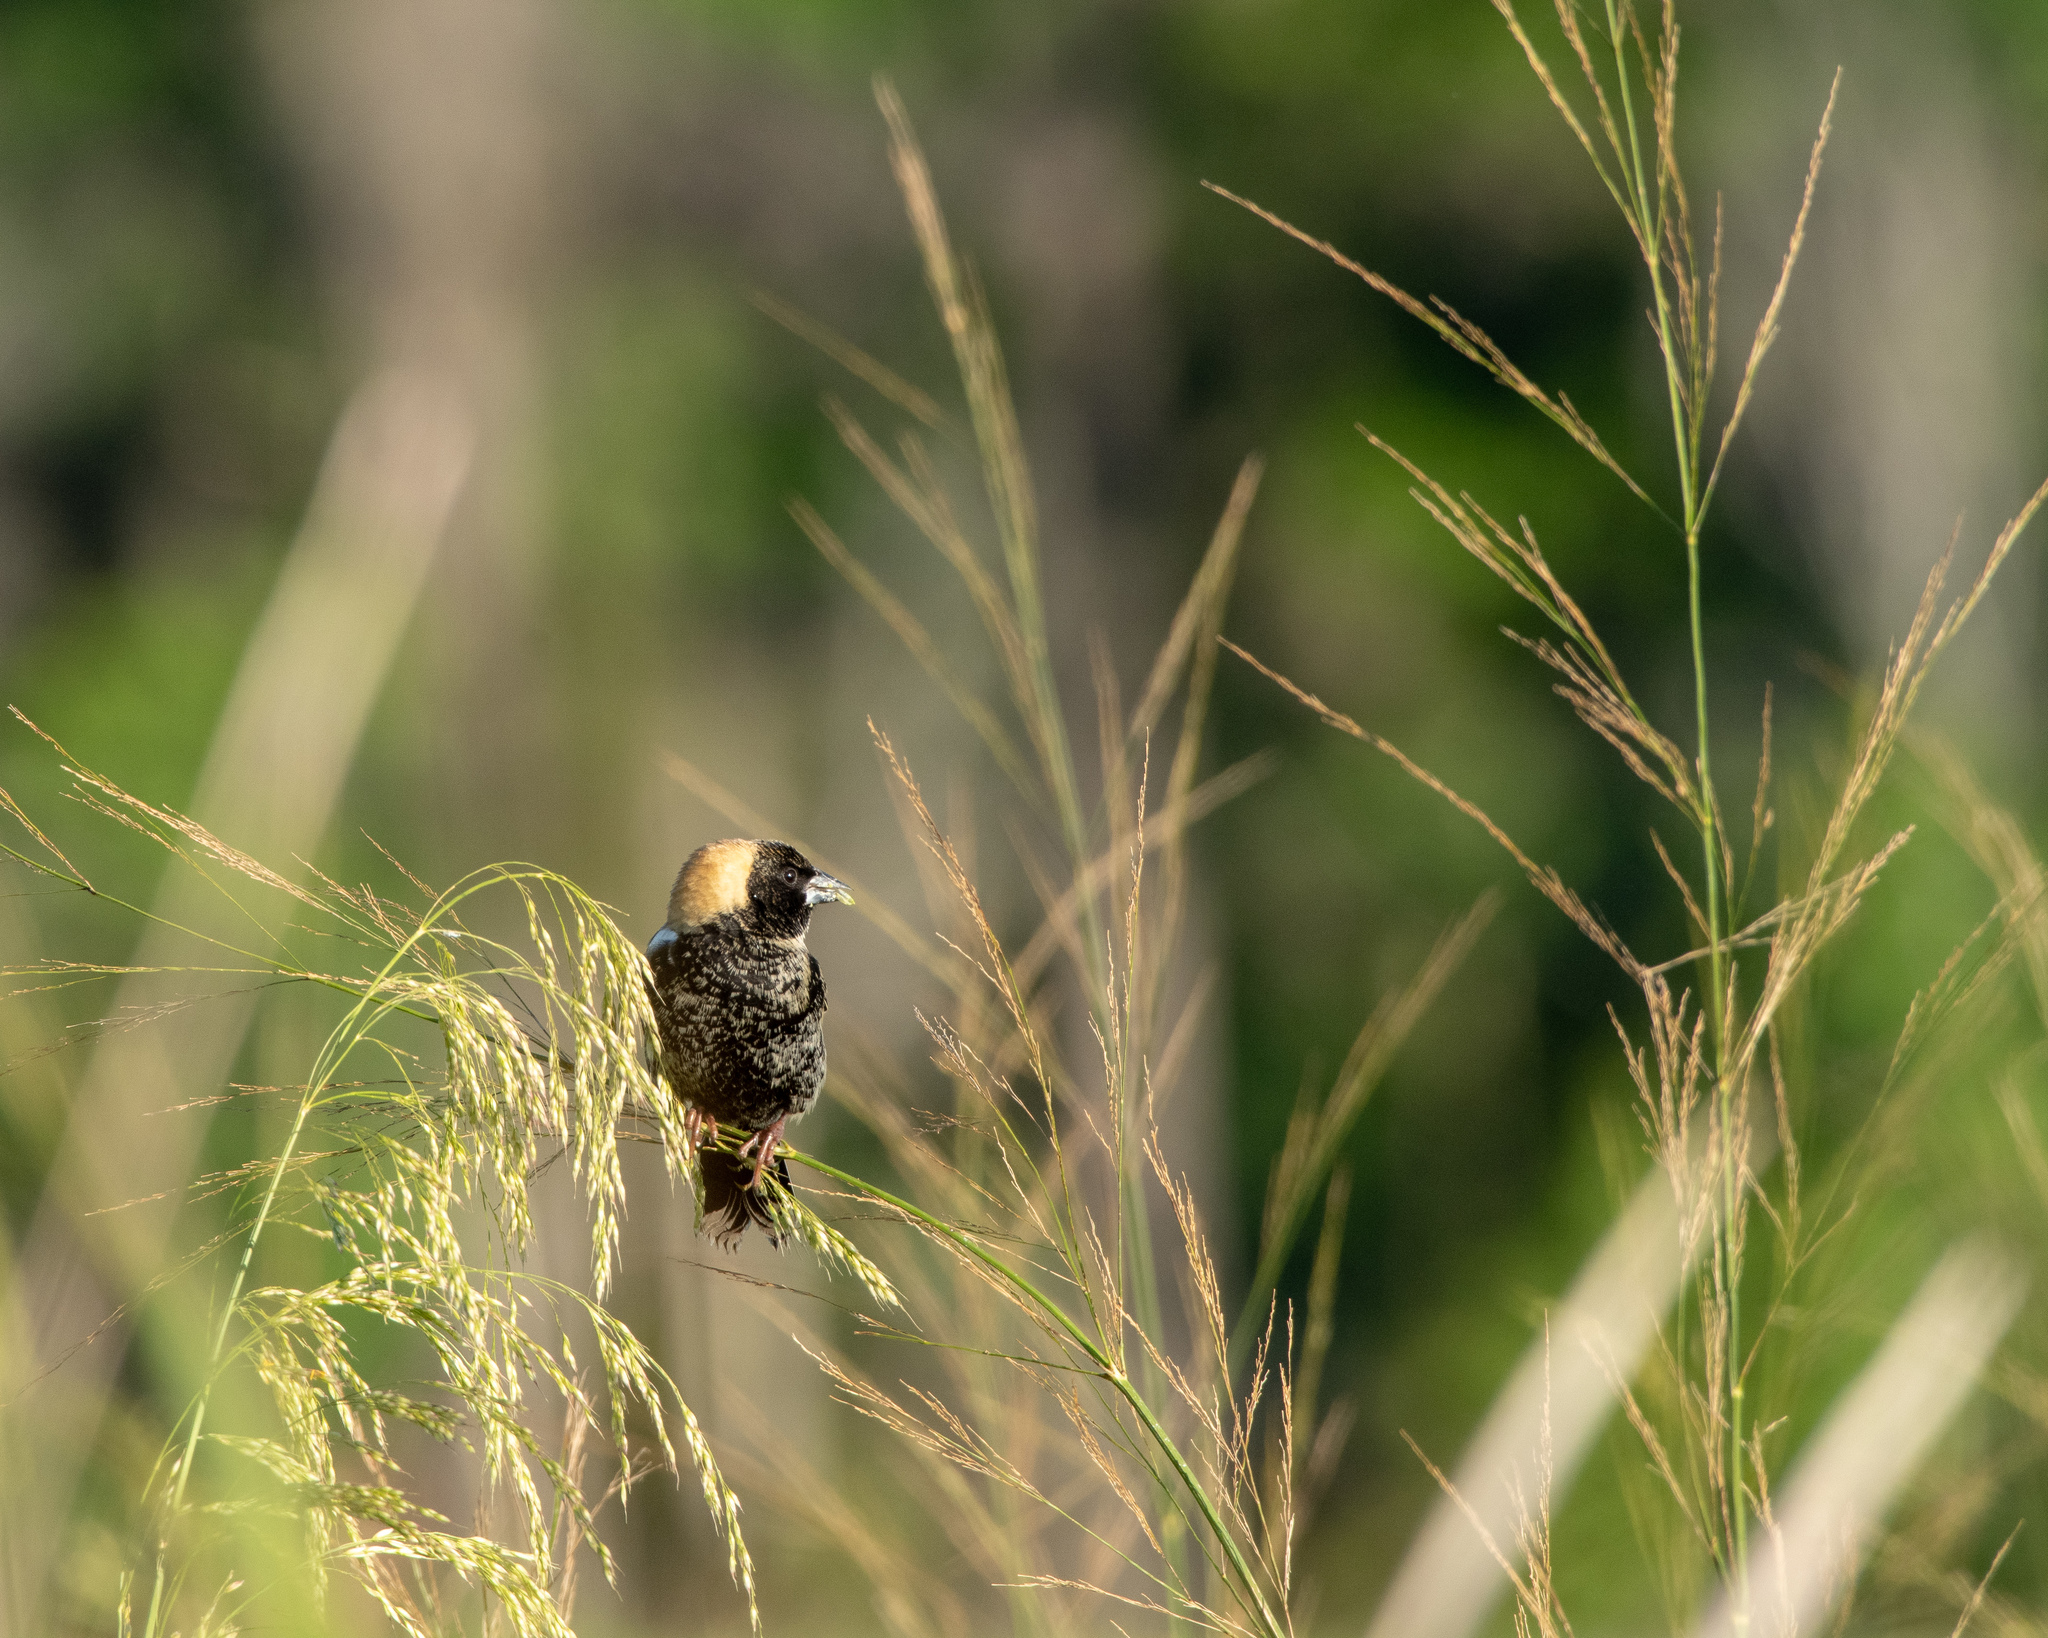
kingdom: Animalia
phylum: Chordata
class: Aves
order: Passeriformes
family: Icteridae
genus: Dolichonyx
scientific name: Dolichonyx oryzivorus
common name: Bobolink
